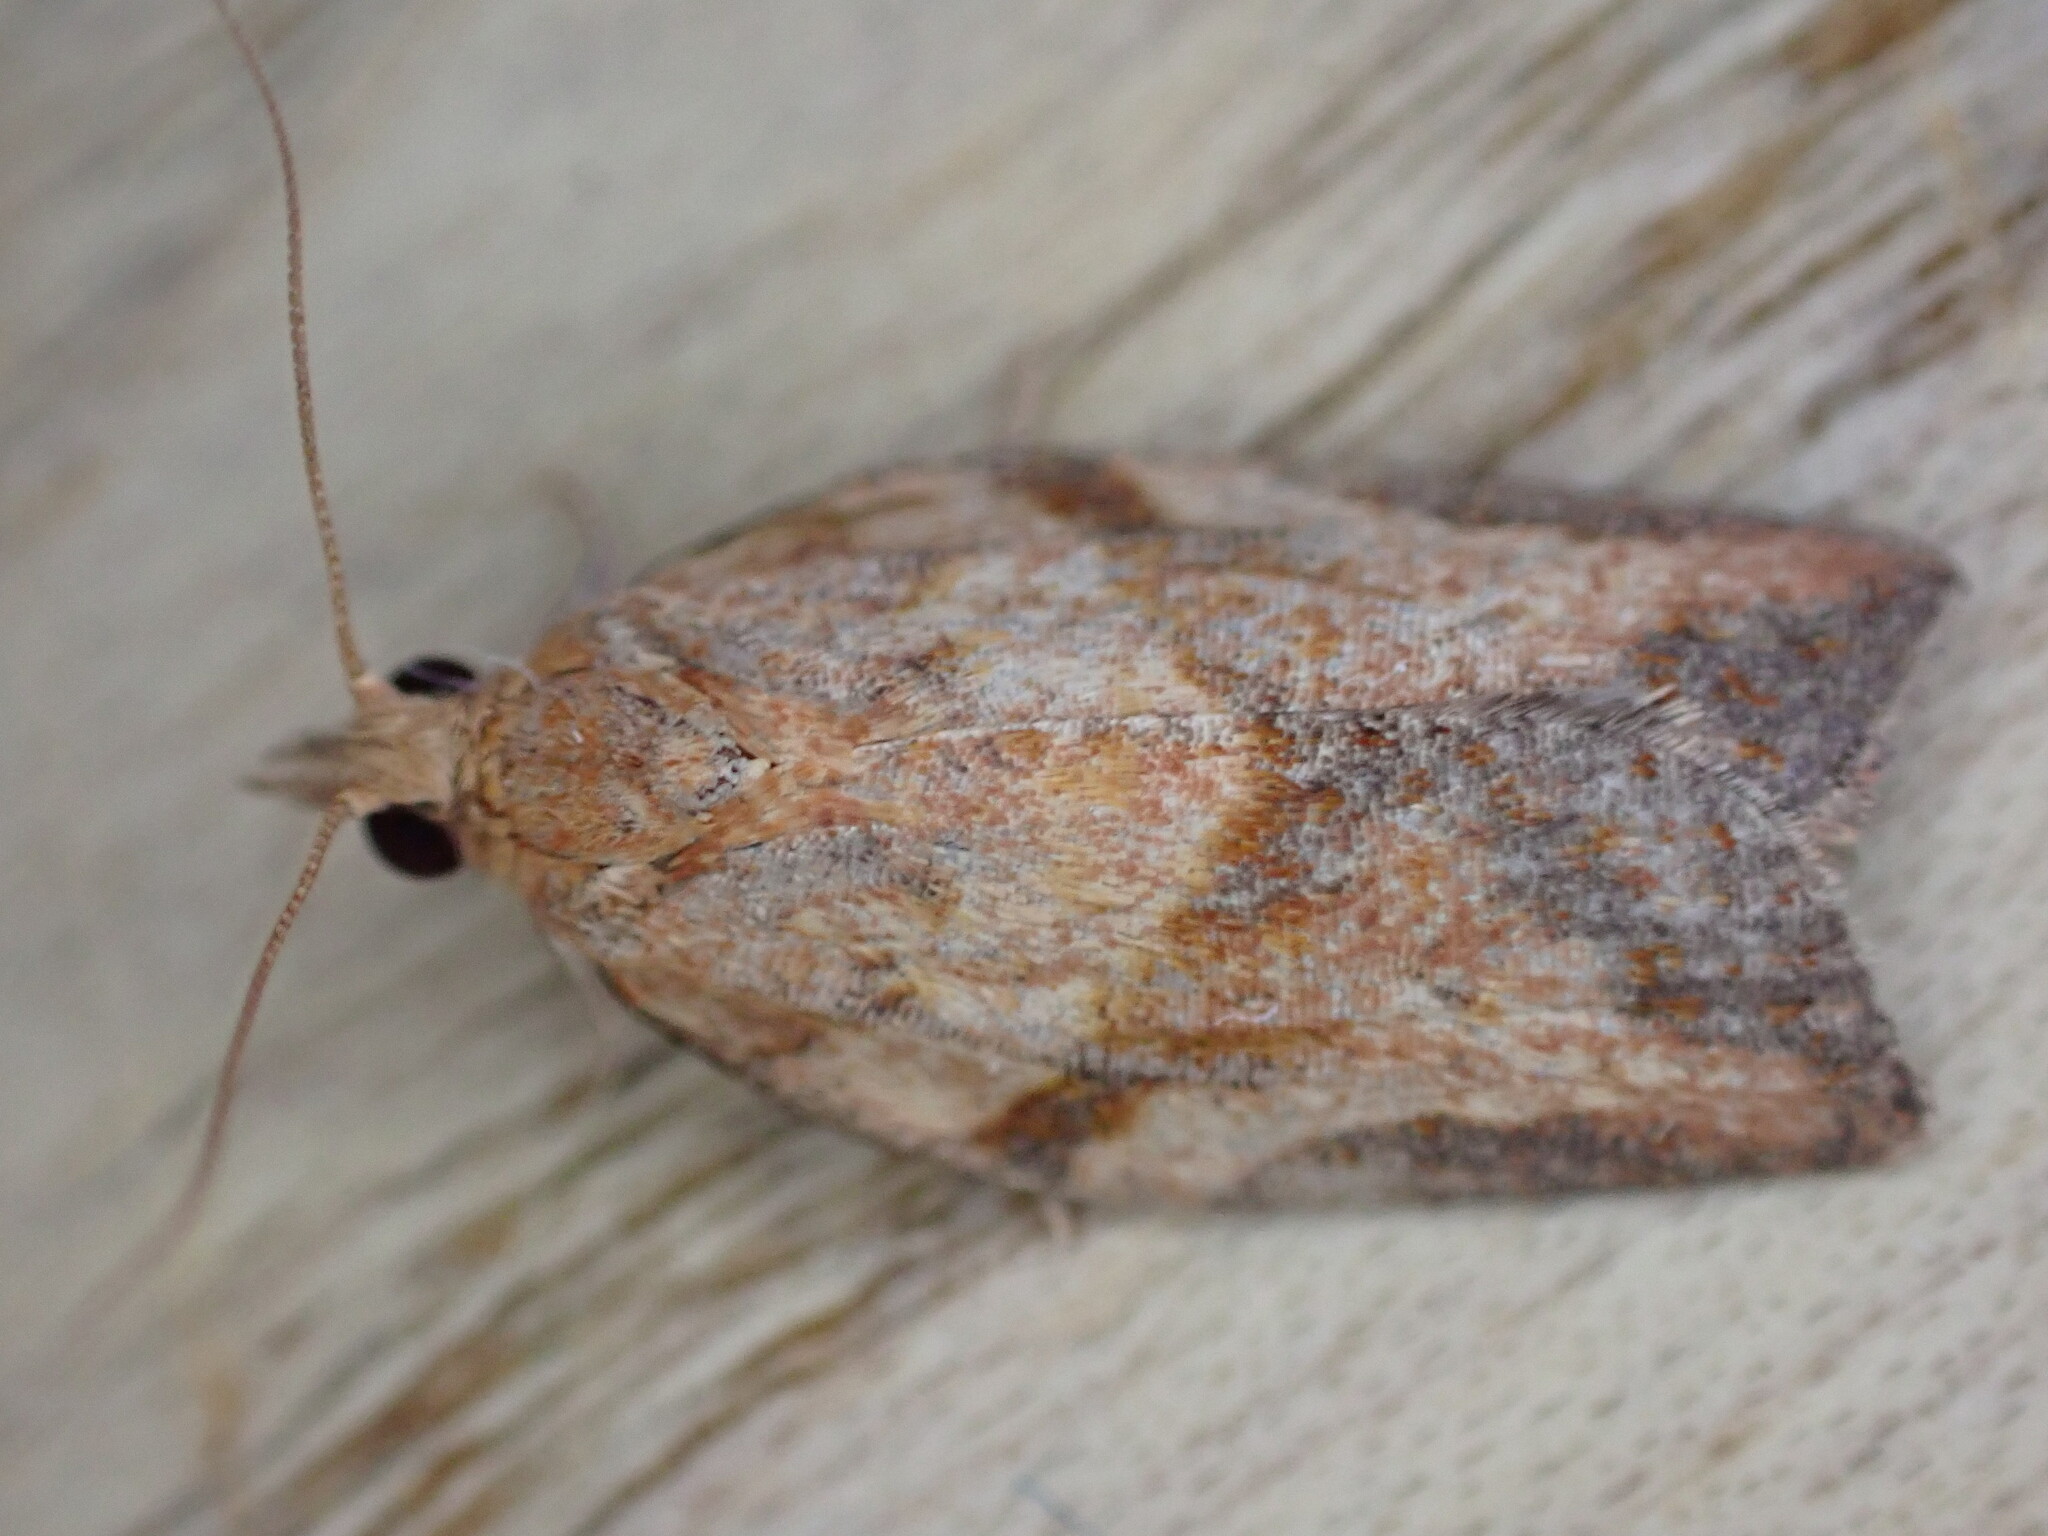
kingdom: Animalia
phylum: Arthropoda
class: Insecta
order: Lepidoptera
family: Tortricidae
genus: Epiphyas
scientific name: Epiphyas postvittana
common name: Light brown apple moth
